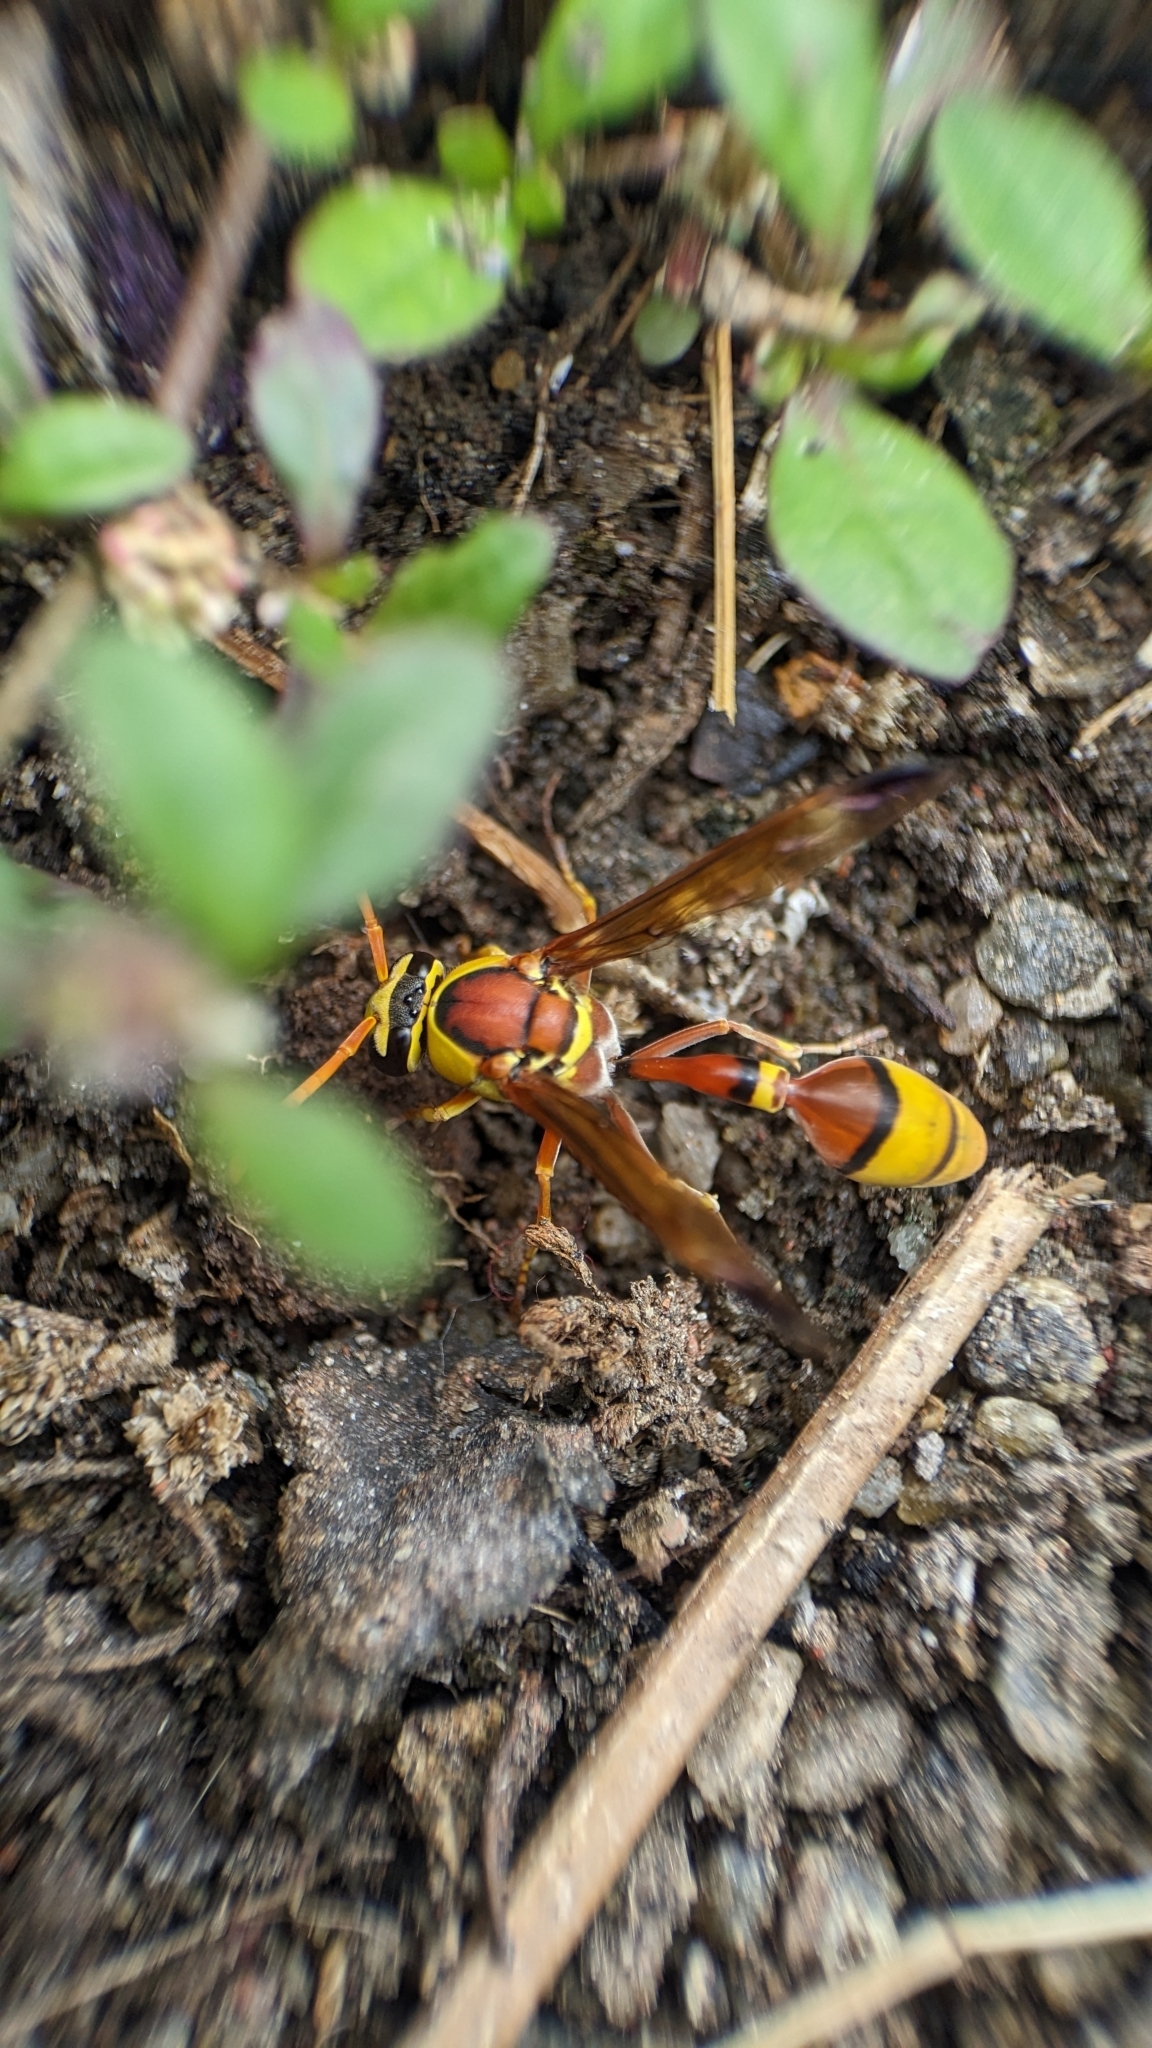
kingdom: Animalia
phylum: Arthropoda
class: Insecta
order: Hymenoptera
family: Eumenidae
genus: Delta
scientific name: Delta esuriens
